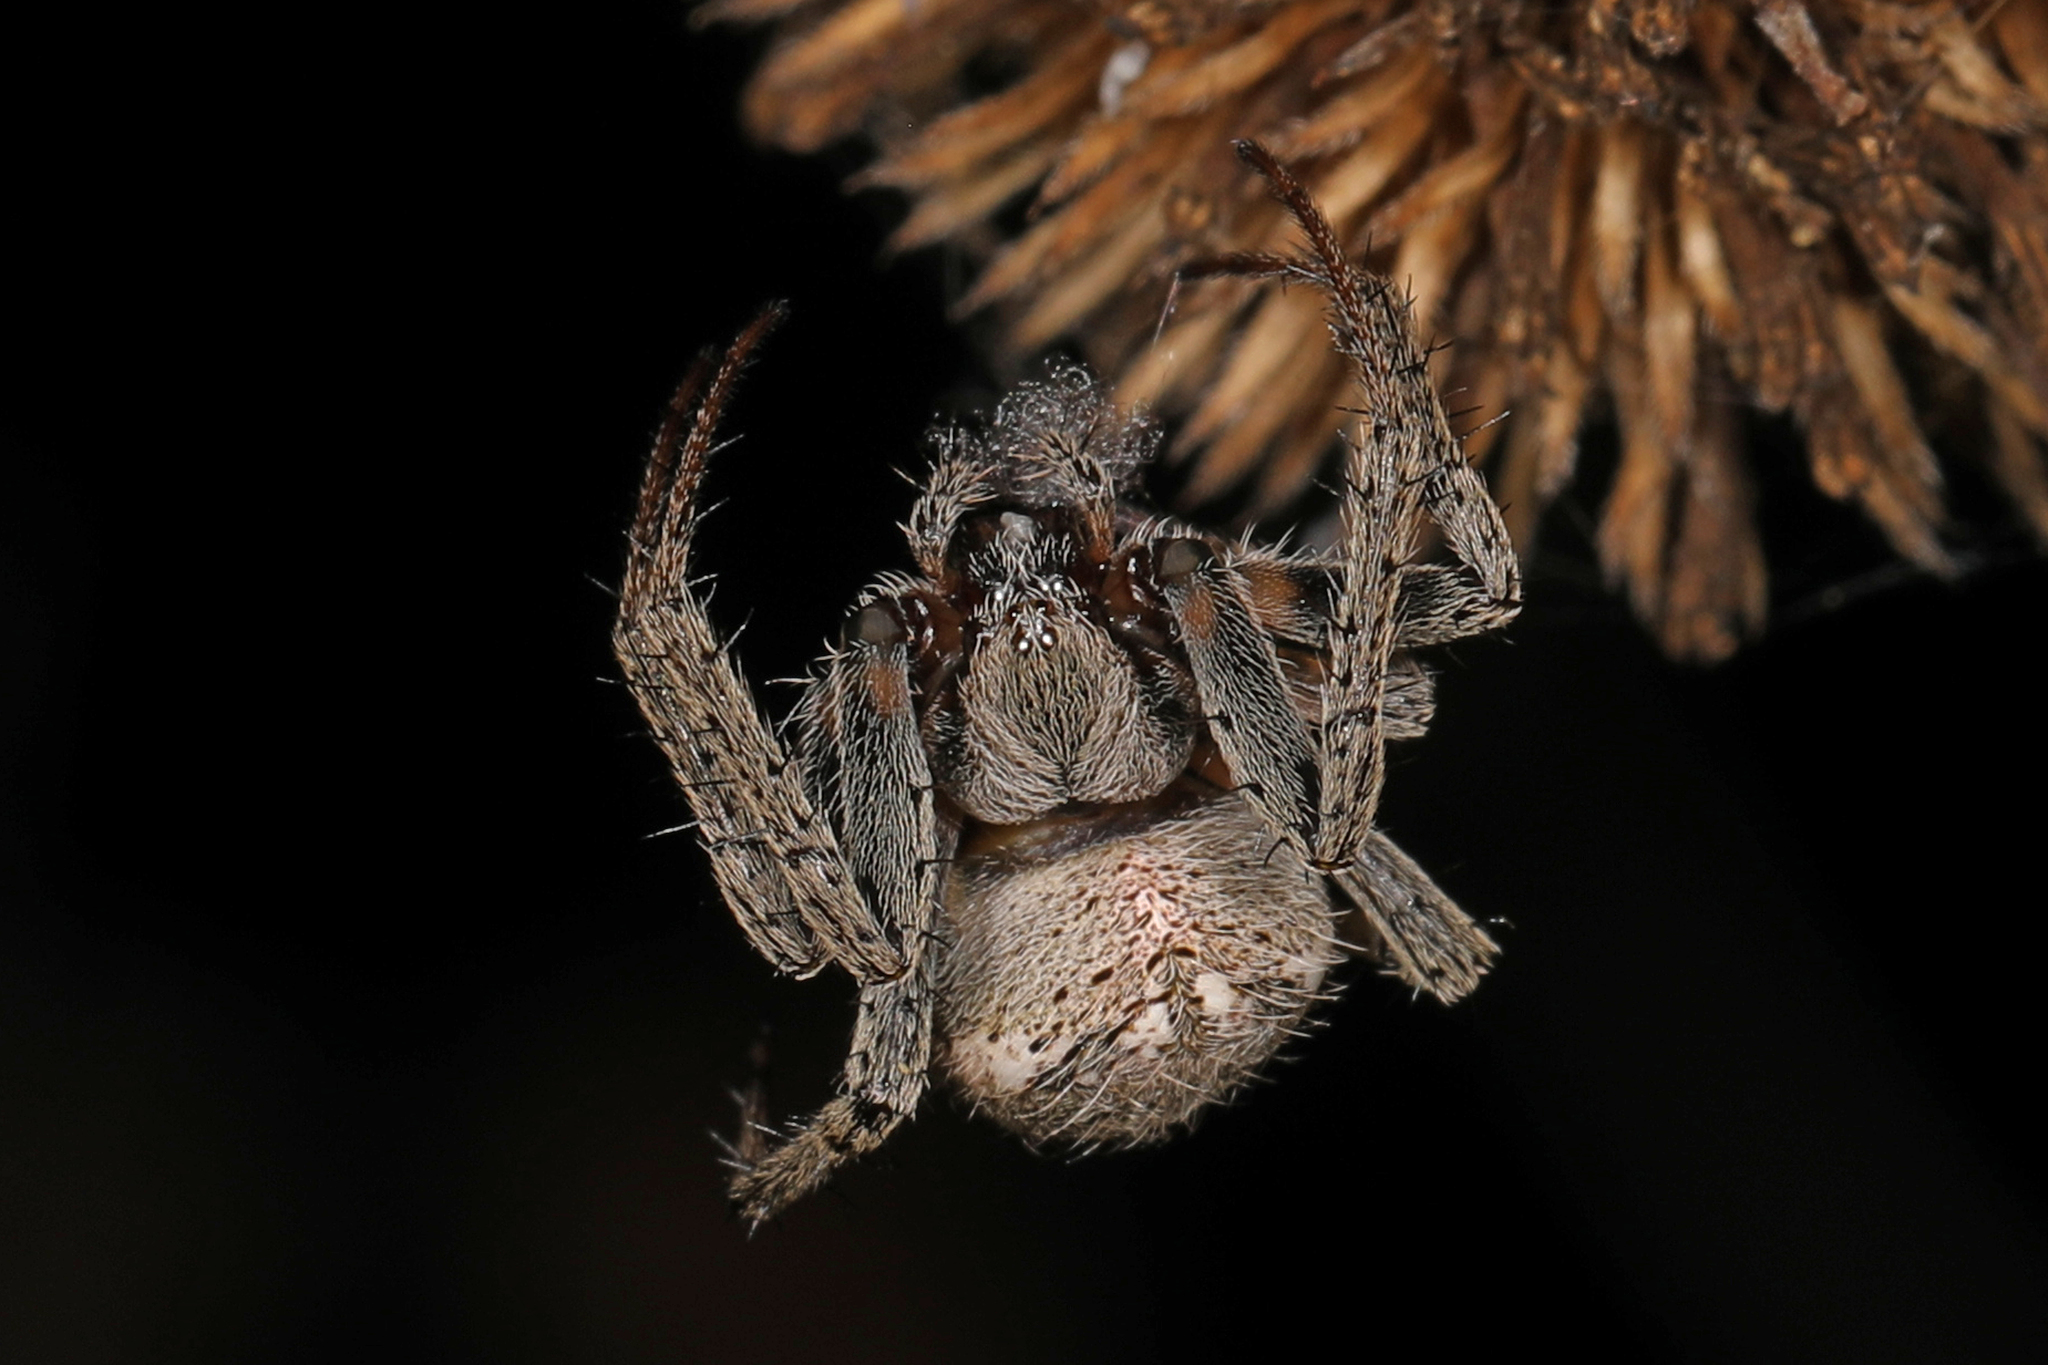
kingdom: Animalia
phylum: Arthropoda
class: Arachnida
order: Araneae
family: Araneidae
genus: Eriophora
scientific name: Eriophora ravilla
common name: Orb weavers
